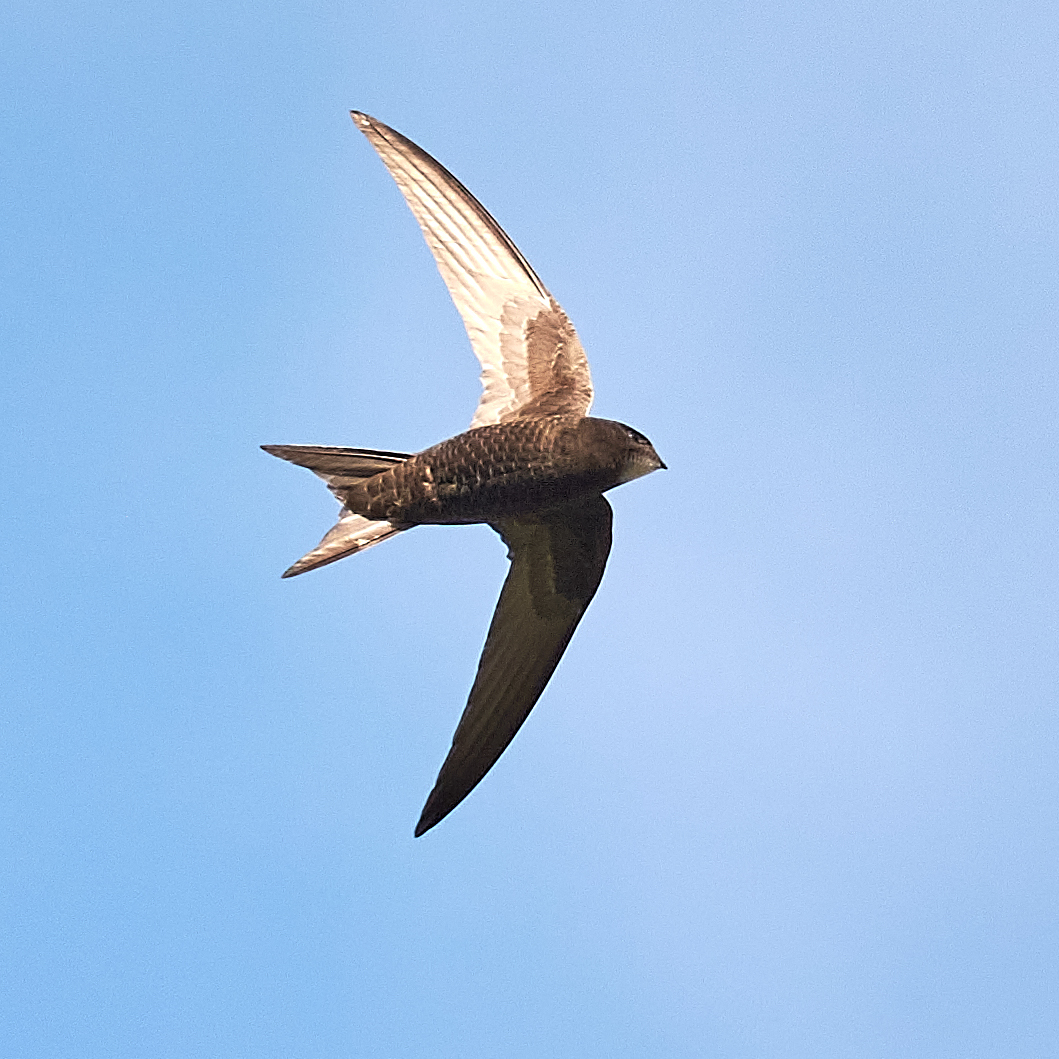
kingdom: Animalia
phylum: Chordata
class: Aves
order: Apodiformes
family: Apodidae
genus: Apus
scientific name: Apus apus
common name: Common swift
